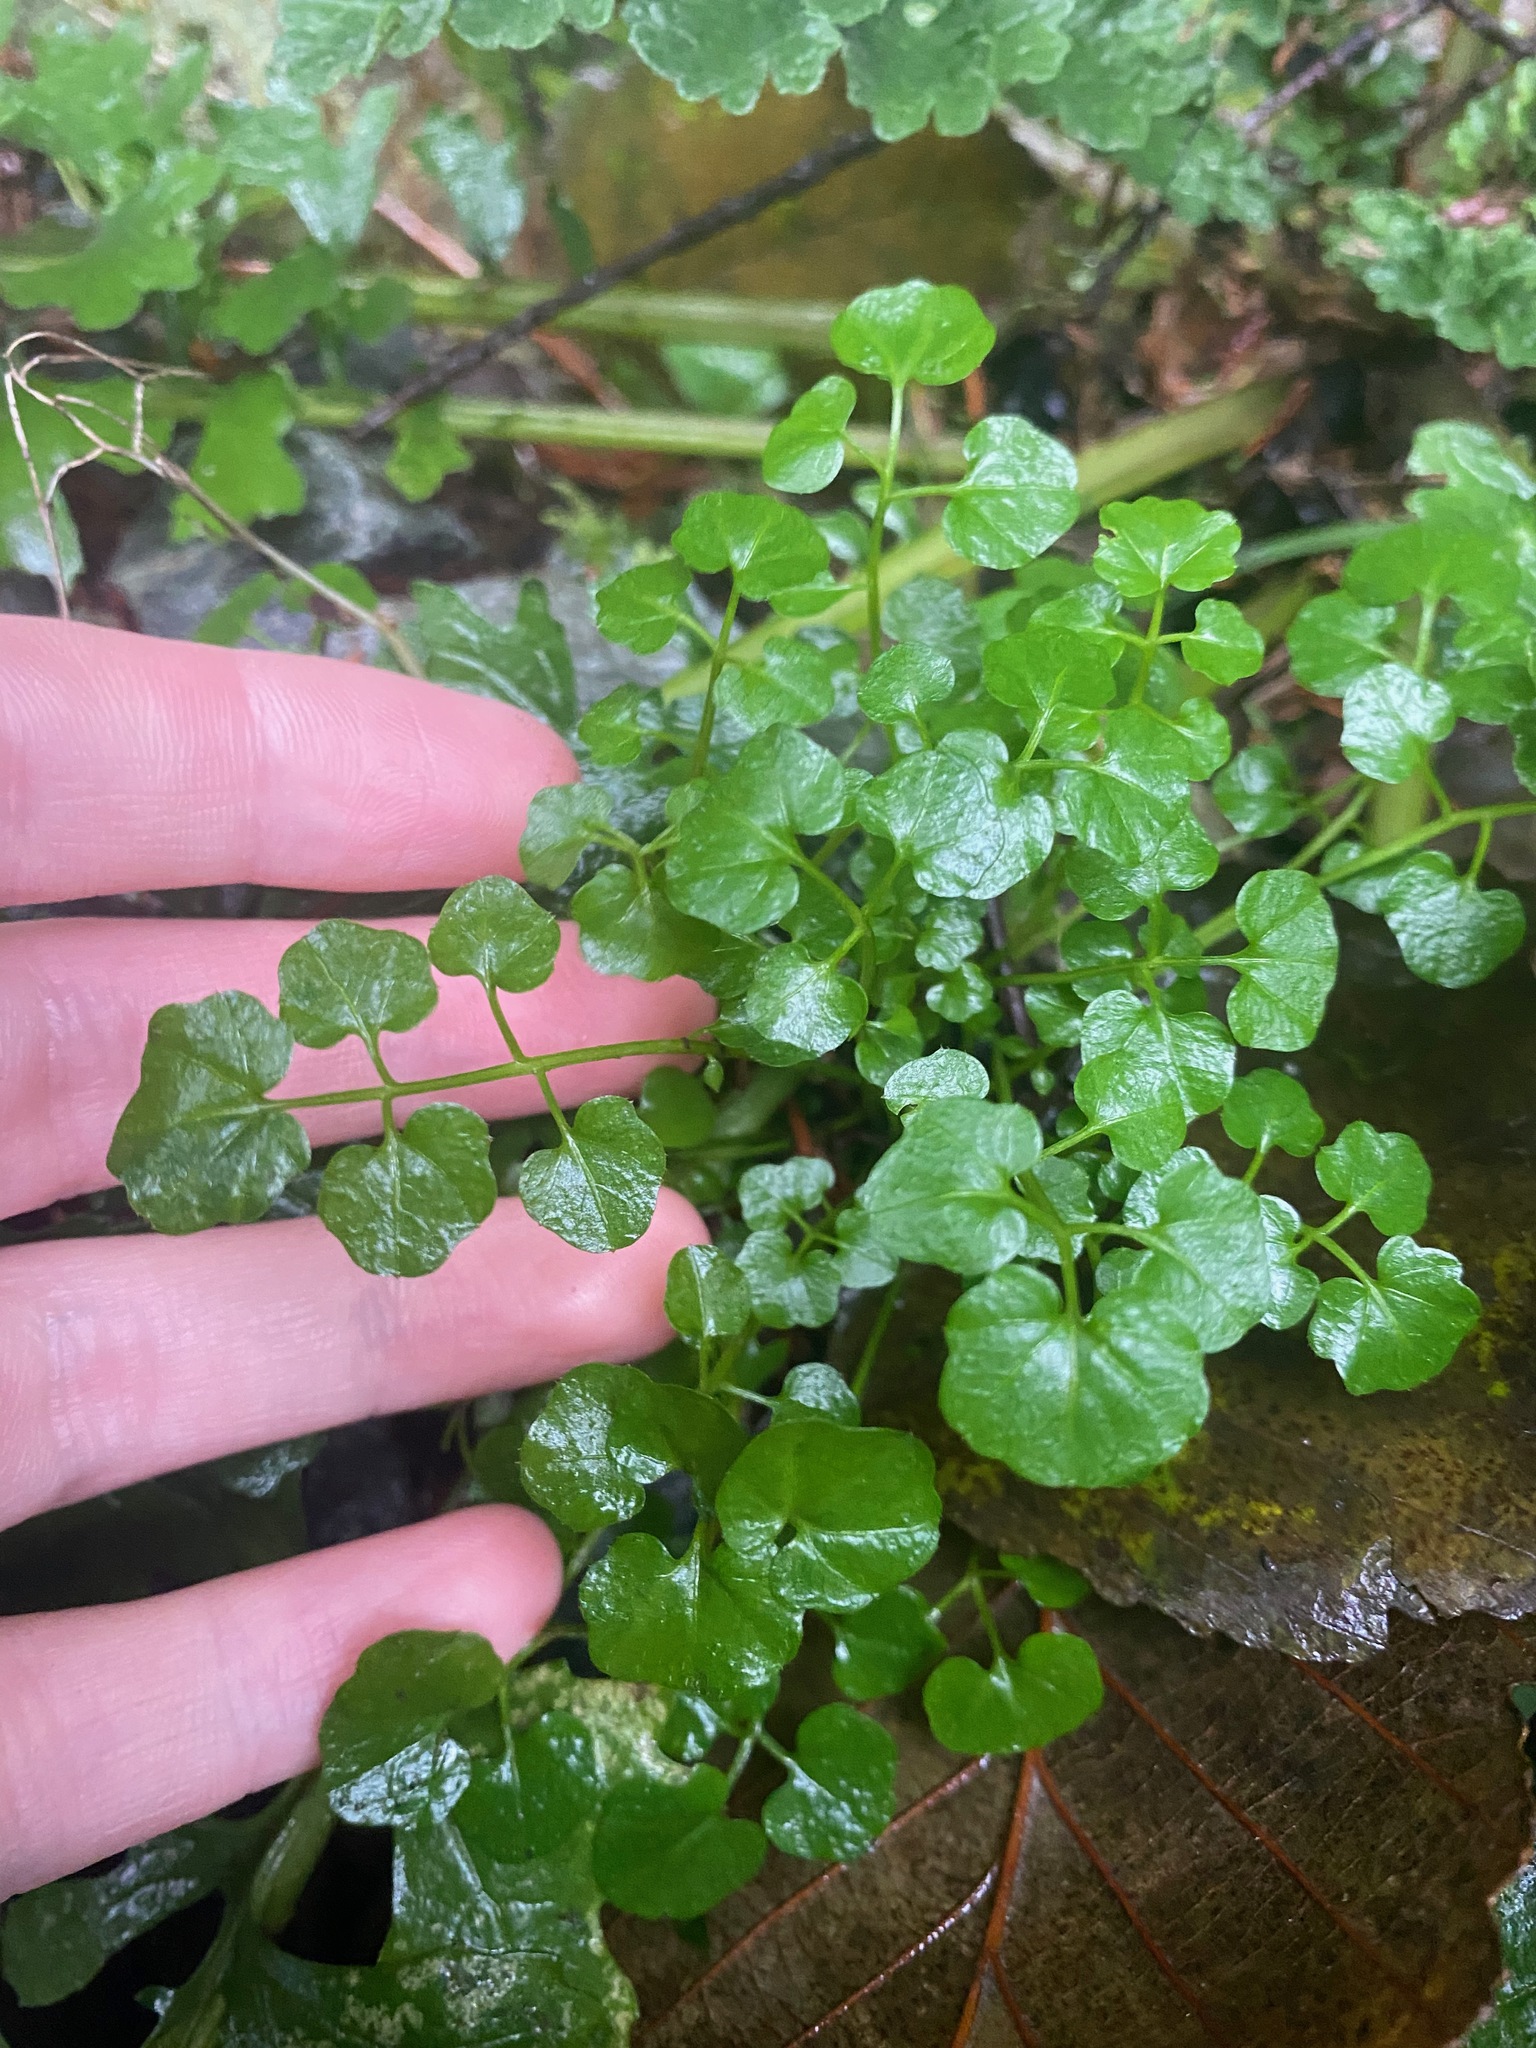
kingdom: Plantae
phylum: Tracheophyta
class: Magnoliopsida
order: Brassicales
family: Brassicaceae
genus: Cardamine
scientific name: Cardamine flexuosa
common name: Woodland bittercress
